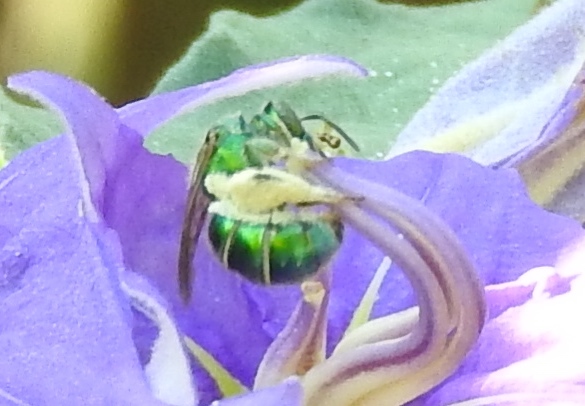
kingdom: Animalia
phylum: Arthropoda
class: Insecta
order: Hymenoptera
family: Halictidae
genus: Augochloropsis
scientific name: Augochloropsis
